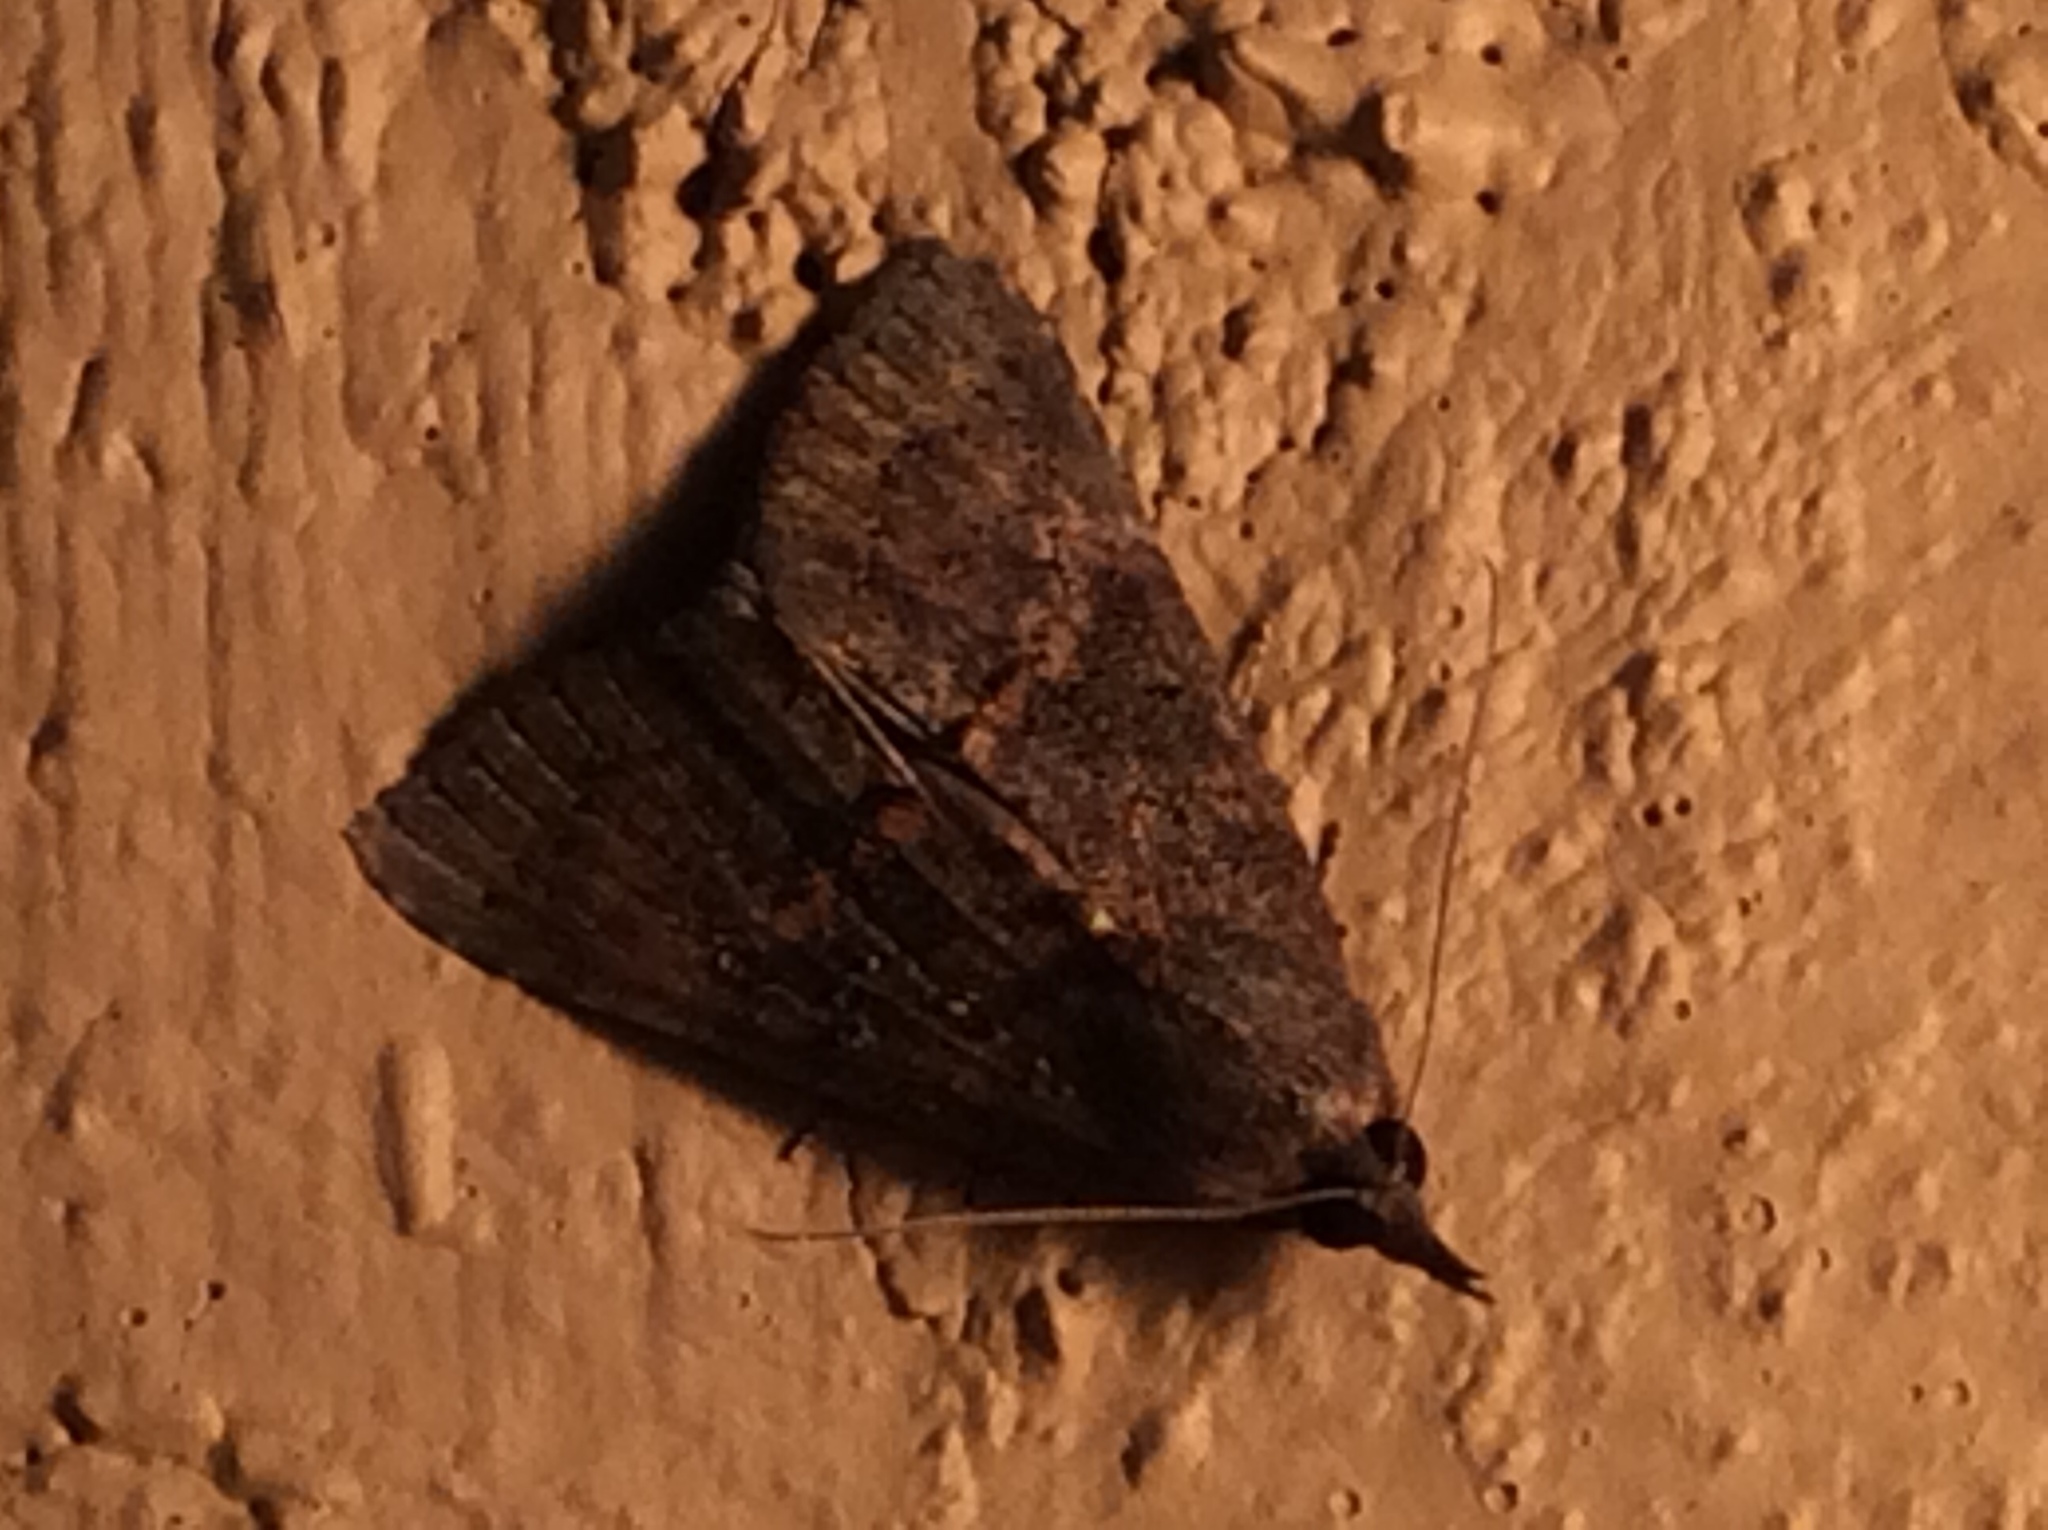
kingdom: Animalia
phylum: Arthropoda
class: Insecta
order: Lepidoptera
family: Erebidae
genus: Hypena
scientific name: Hypena scabra
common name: Green cloverworm
